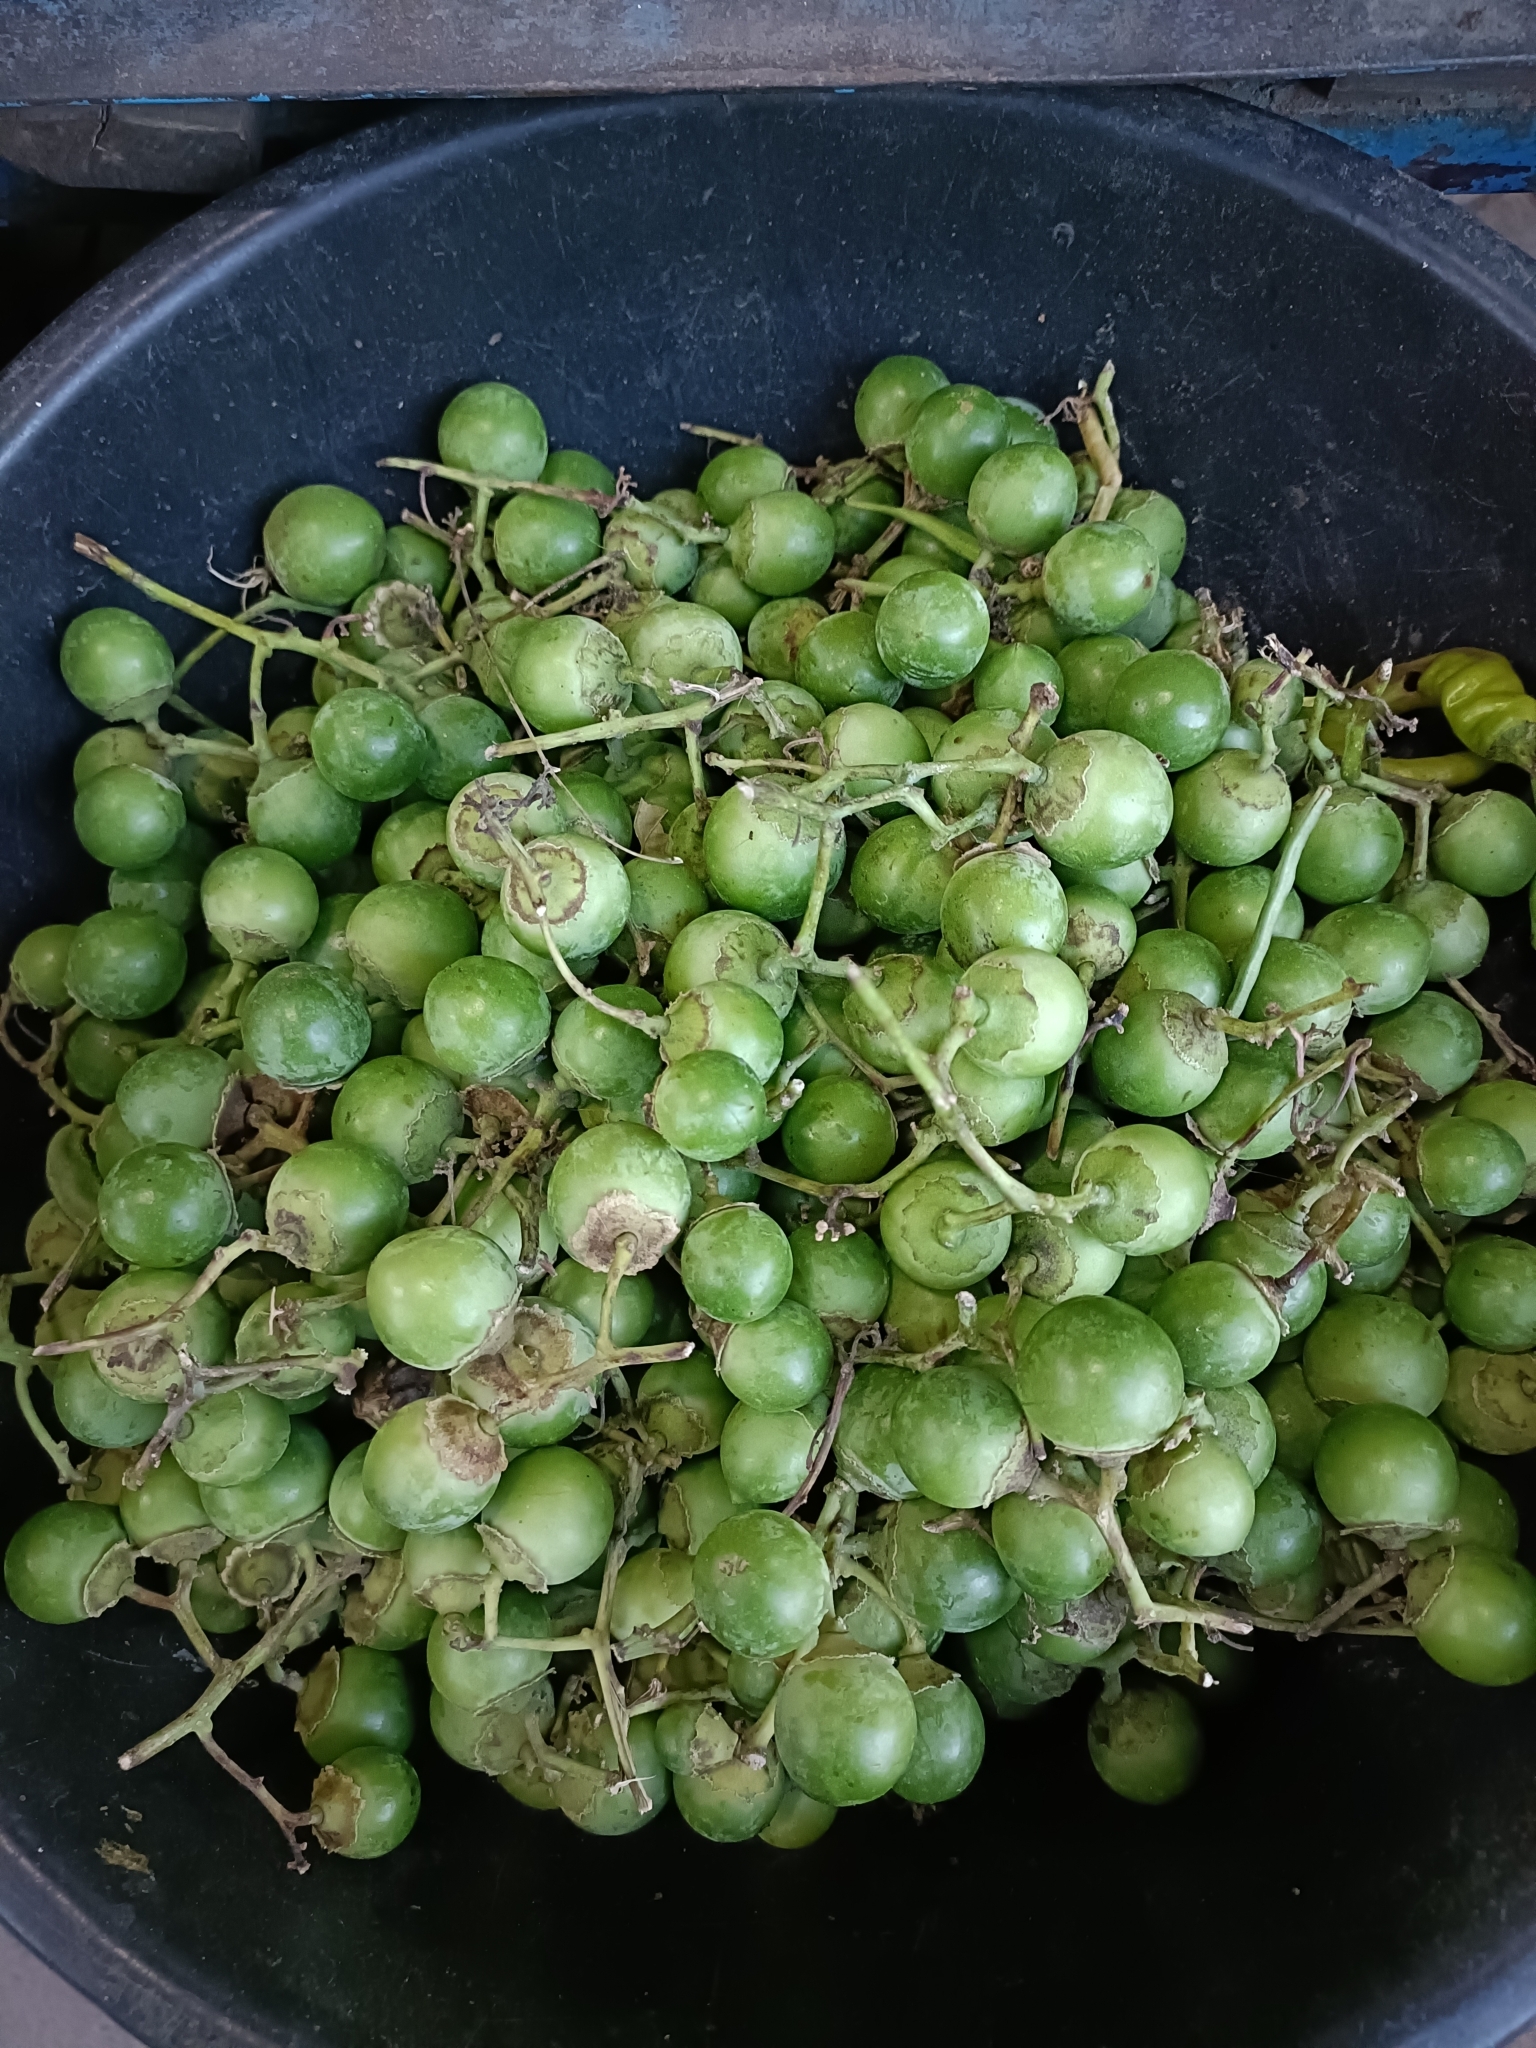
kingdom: Plantae
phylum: Tracheophyta
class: Magnoliopsida
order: Boraginales
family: Cordiaceae
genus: Cordia
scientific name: Cordia dichotoma
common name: Fragrant manjack
